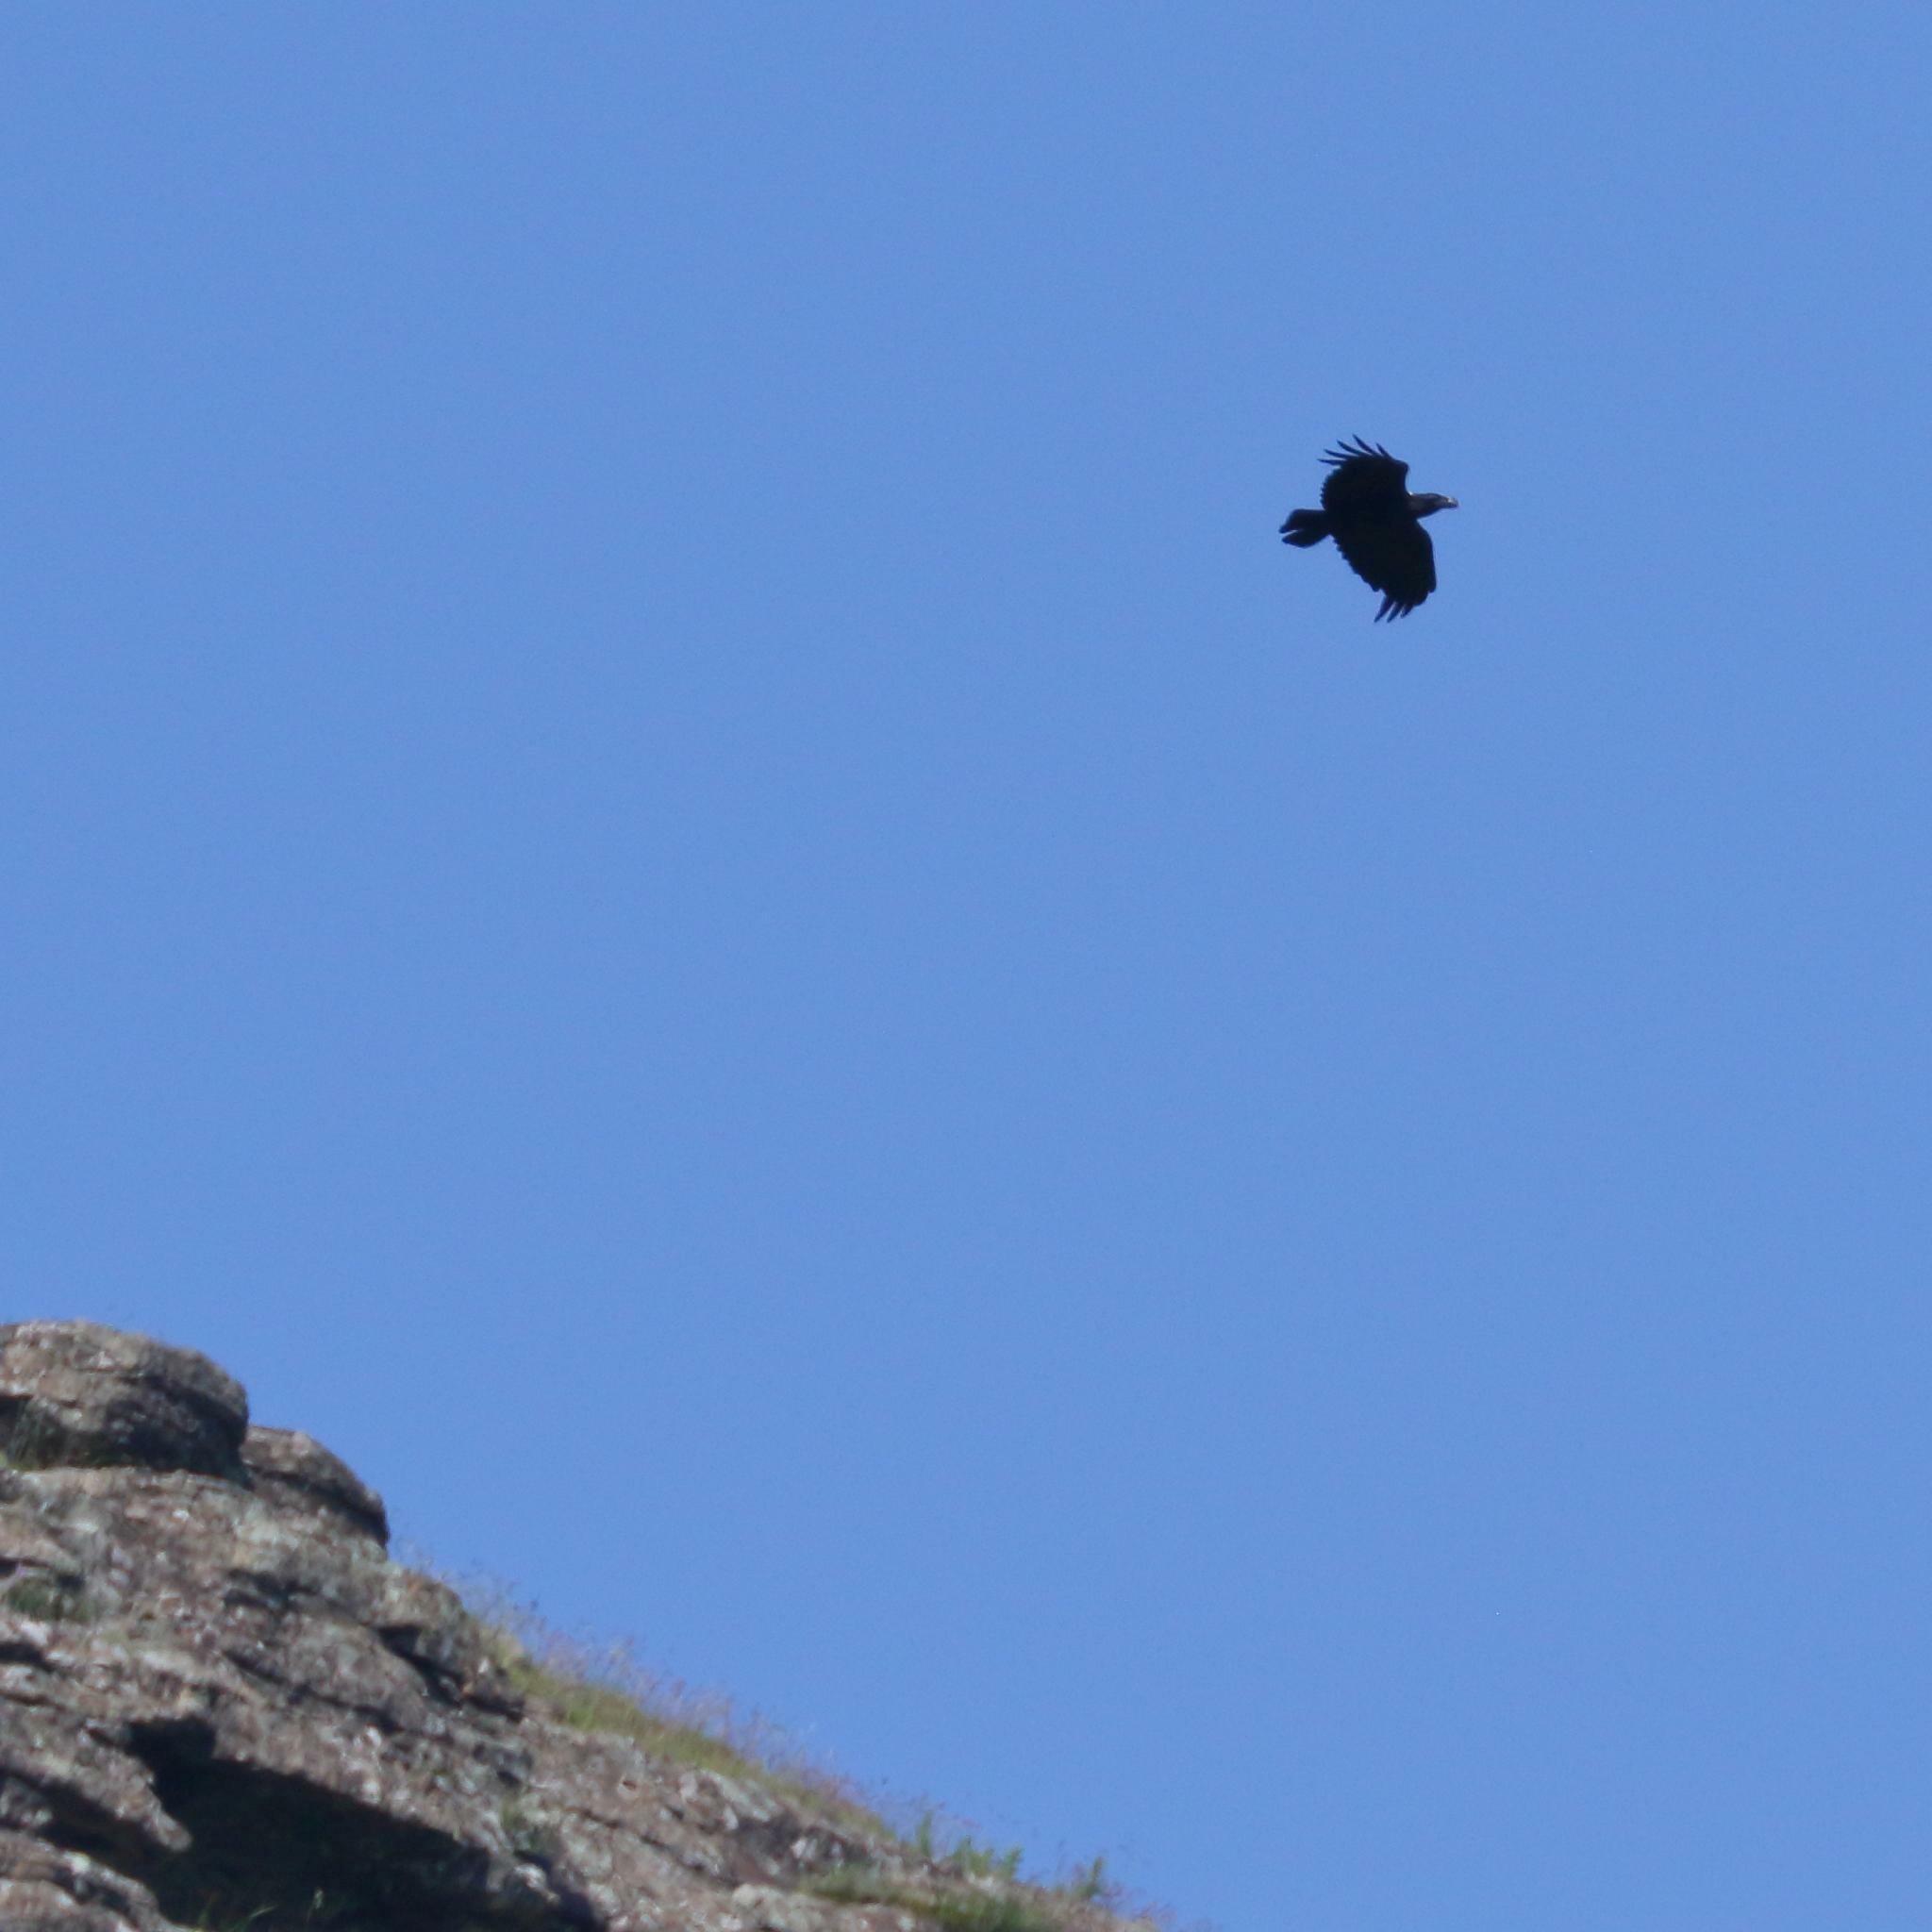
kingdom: Animalia
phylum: Chordata
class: Aves
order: Passeriformes
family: Corvidae
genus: Corvus
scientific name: Corvus albicollis
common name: White-necked raven
